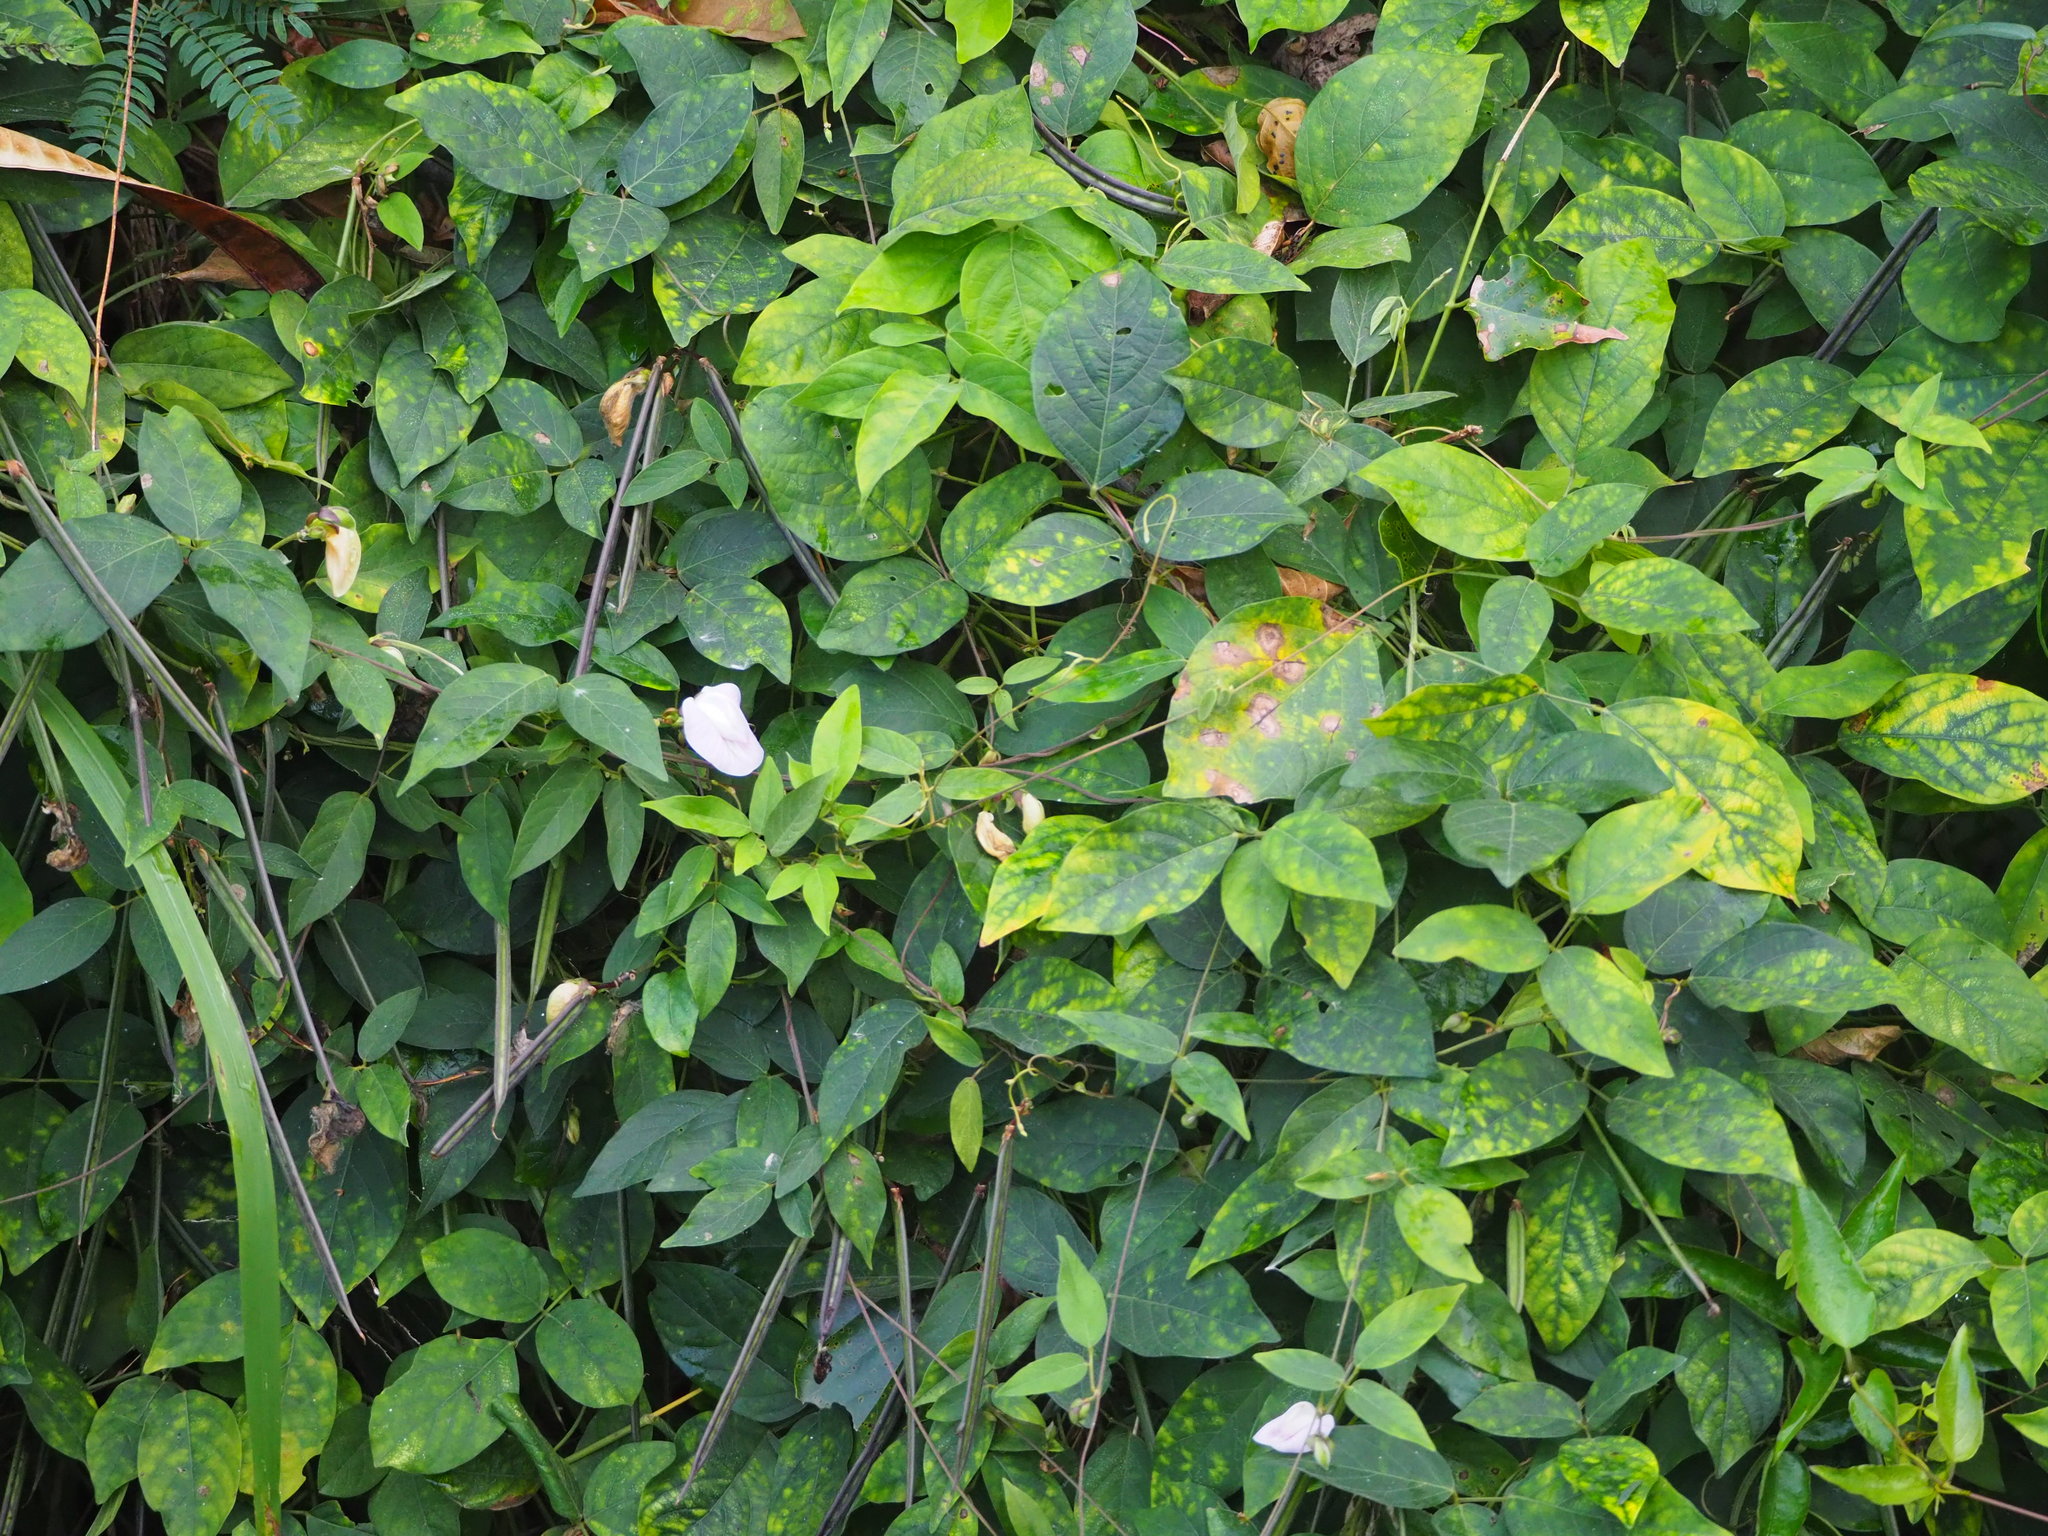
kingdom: Plantae
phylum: Tracheophyta
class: Magnoliopsida
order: Fabales
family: Fabaceae
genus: Centrosema
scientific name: Centrosema pubescens
